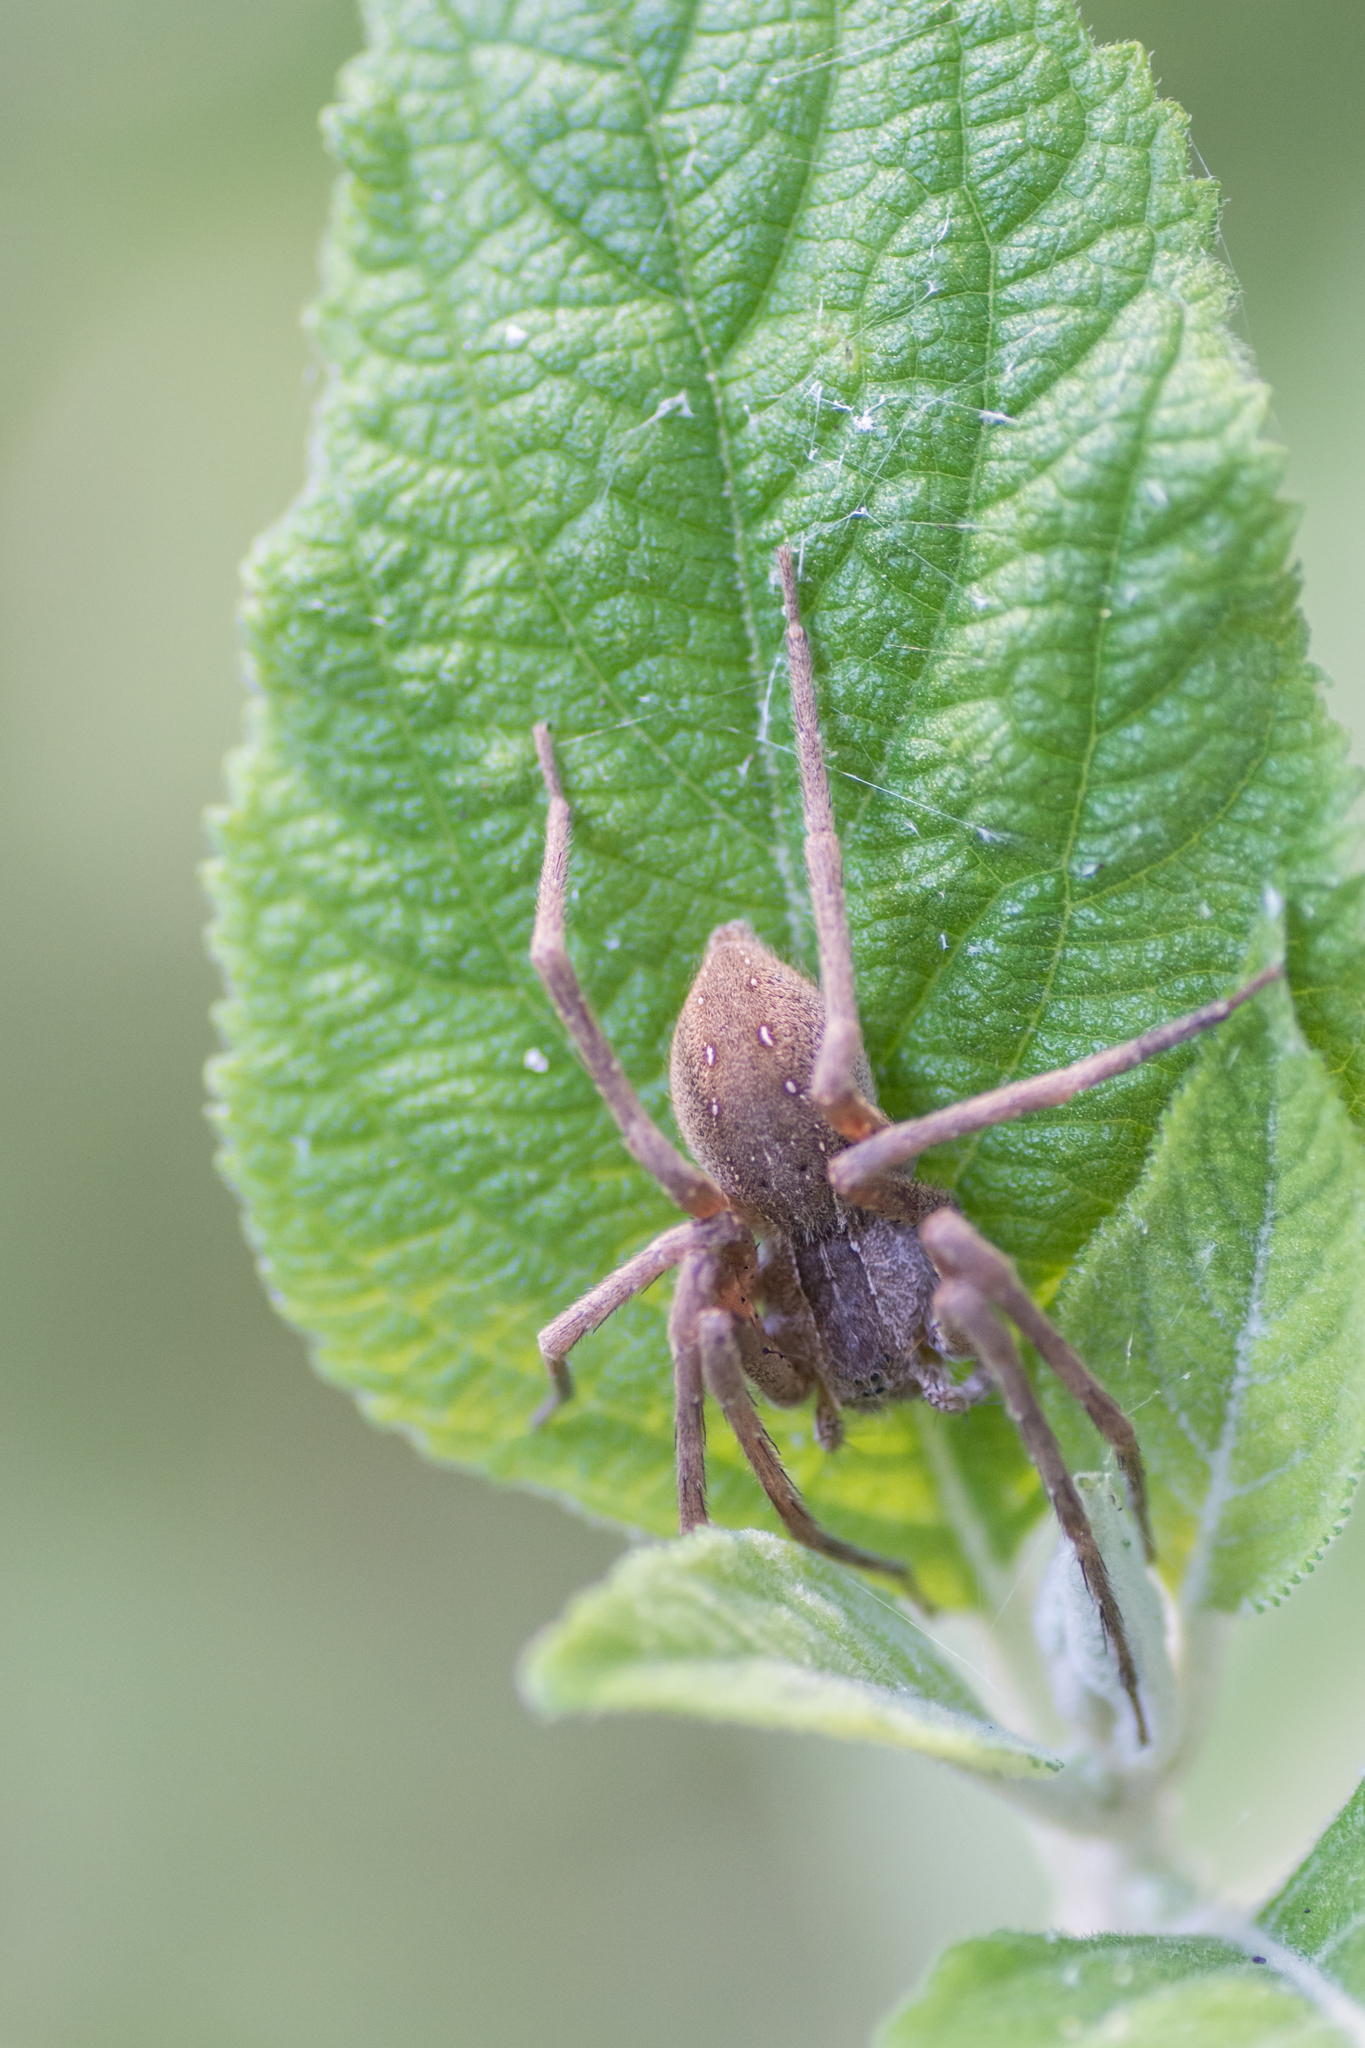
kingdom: Animalia
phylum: Arthropoda
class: Arachnida
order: Araneae
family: Pisauridae
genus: Pisaurina
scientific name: Pisaurina mira
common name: American nursery web spider
